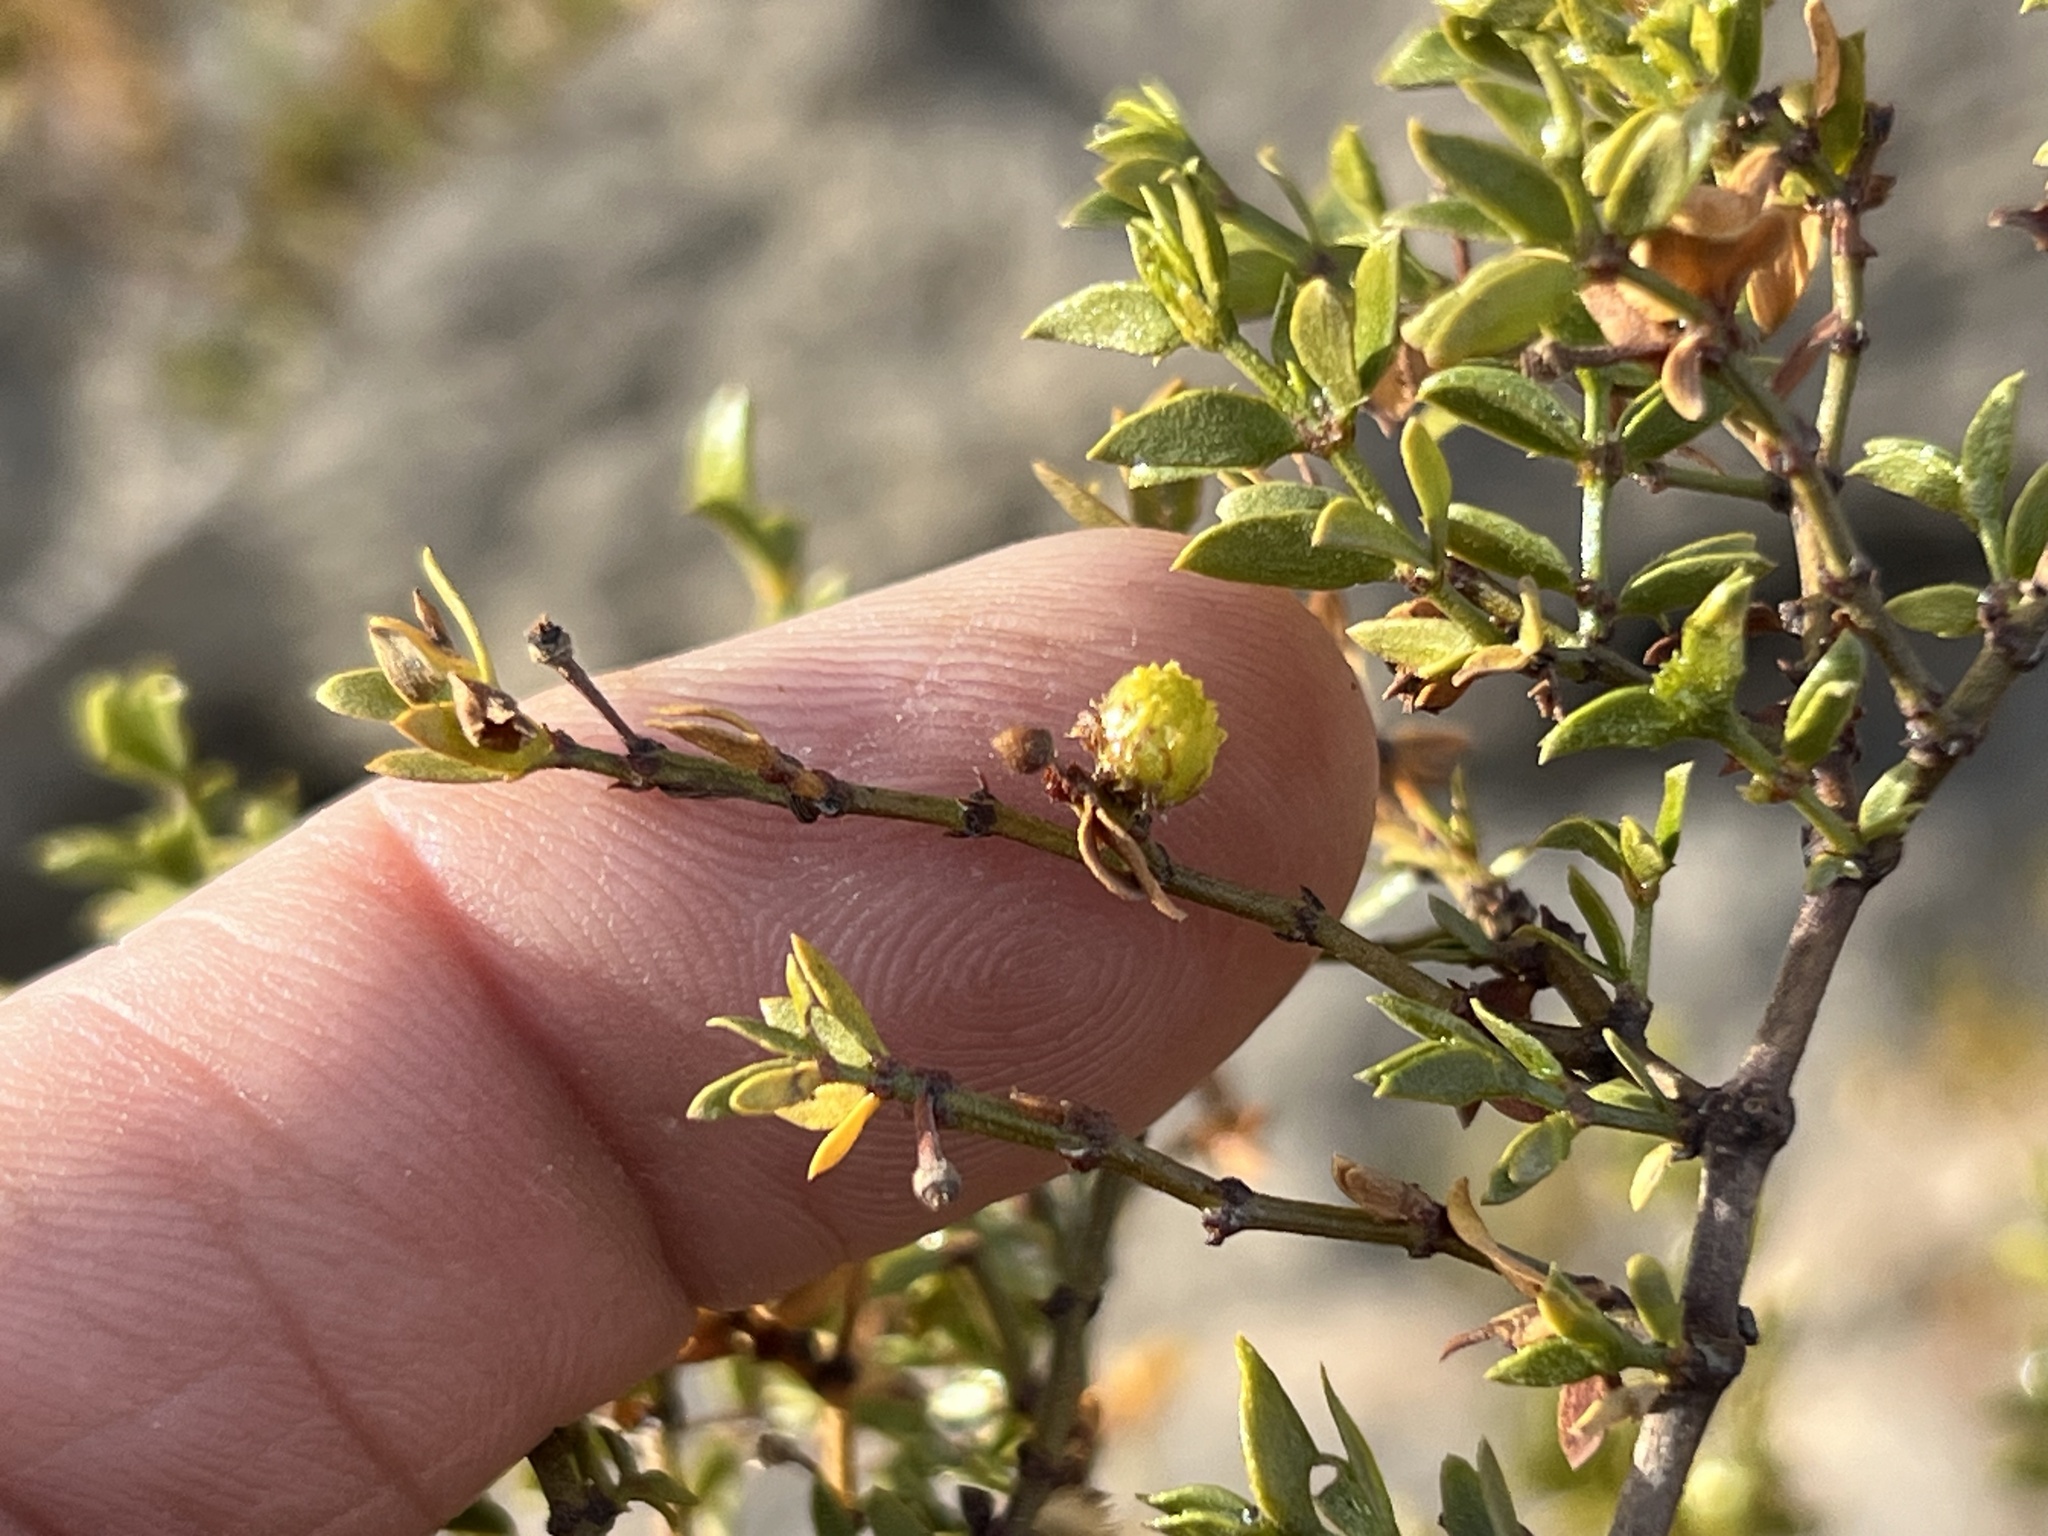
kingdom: Animalia
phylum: Arthropoda
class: Insecta
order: Diptera
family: Cecidomyiidae
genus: Asphondylia
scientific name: Asphondylia resinosa
